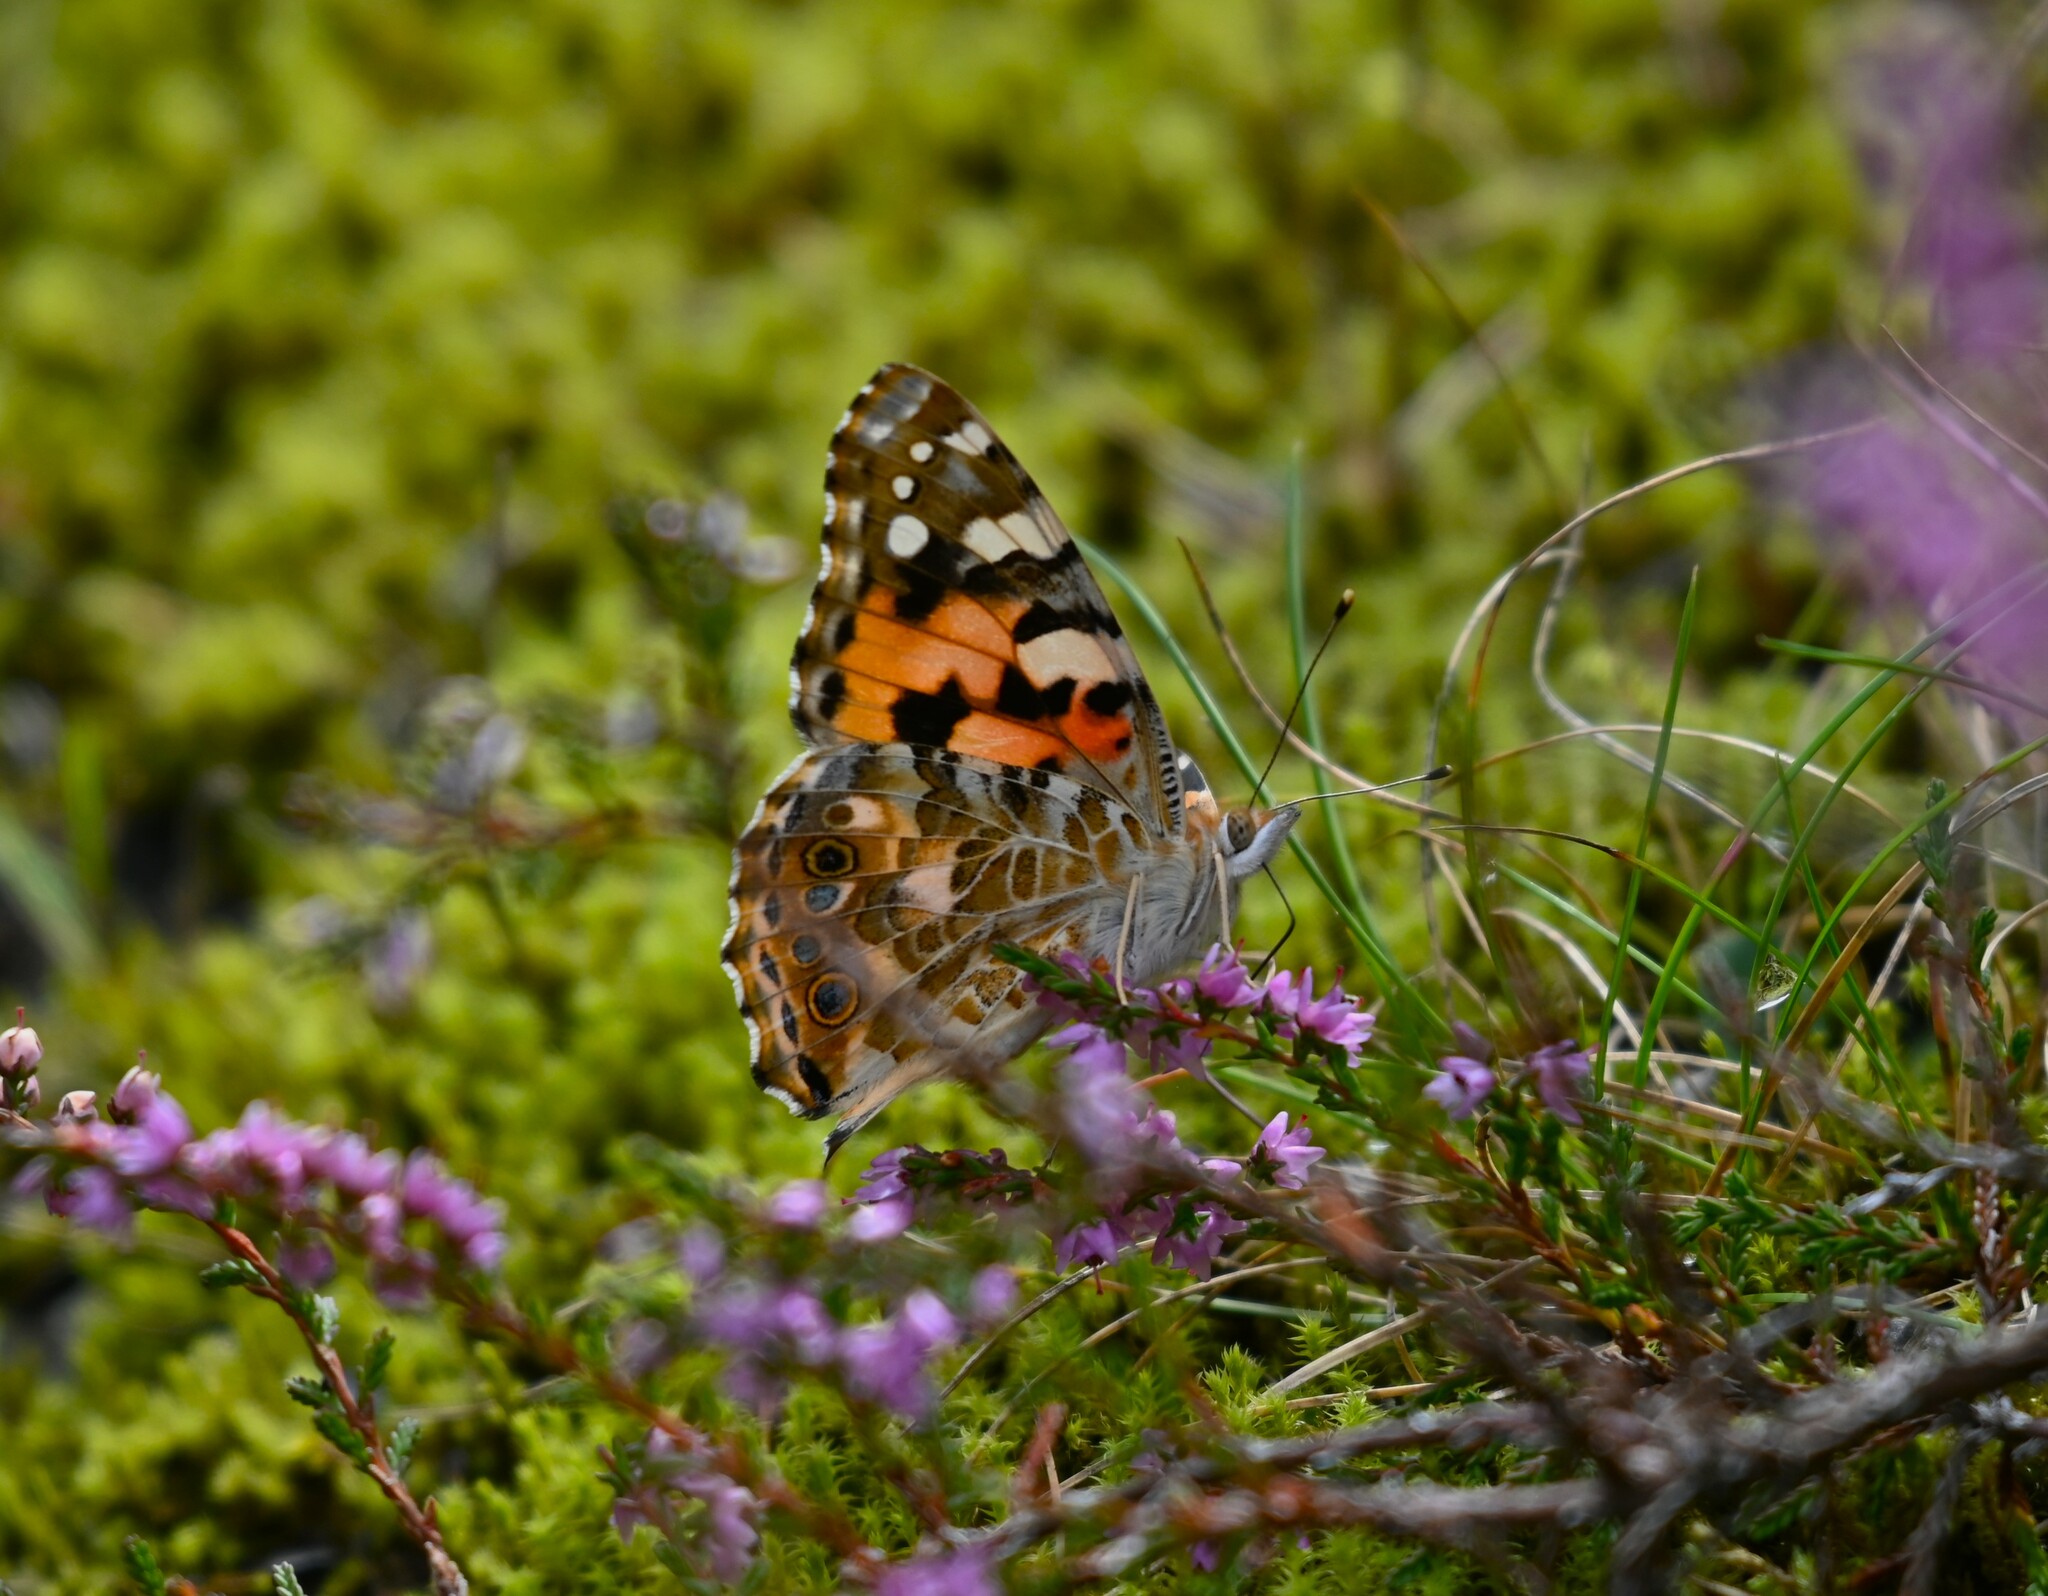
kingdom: Animalia
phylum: Arthropoda
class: Insecta
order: Lepidoptera
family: Nymphalidae
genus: Vanessa
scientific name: Vanessa cardui
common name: Painted lady
